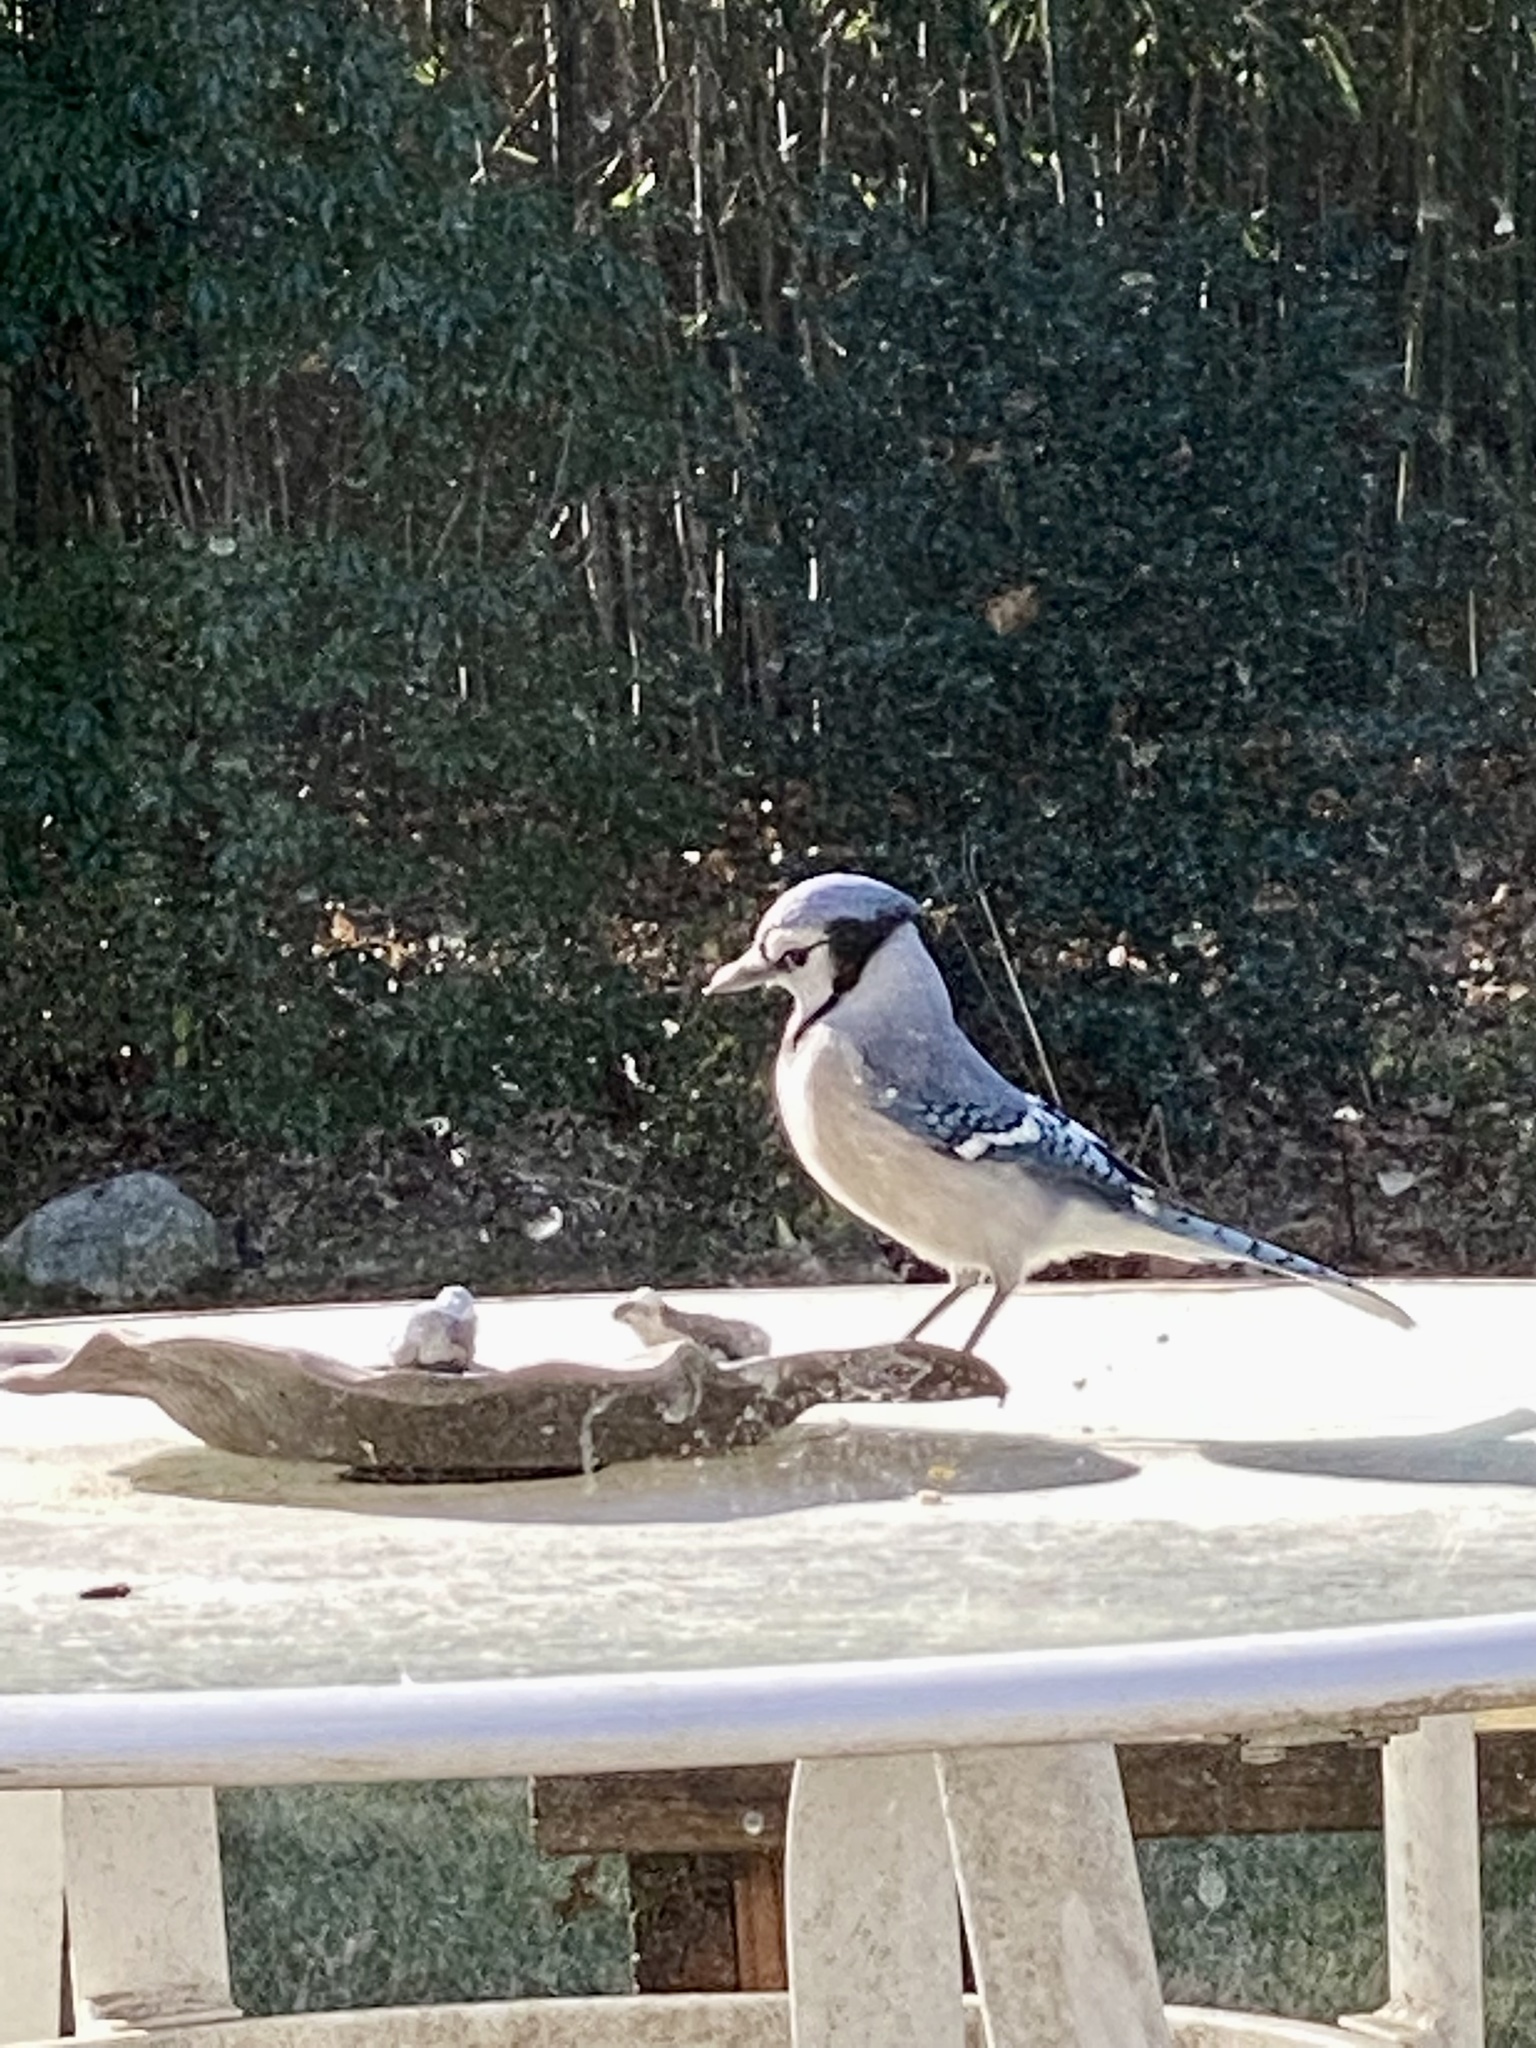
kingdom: Animalia
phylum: Chordata
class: Aves
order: Passeriformes
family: Corvidae
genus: Cyanocitta
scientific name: Cyanocitta cristata
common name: Blue jay
